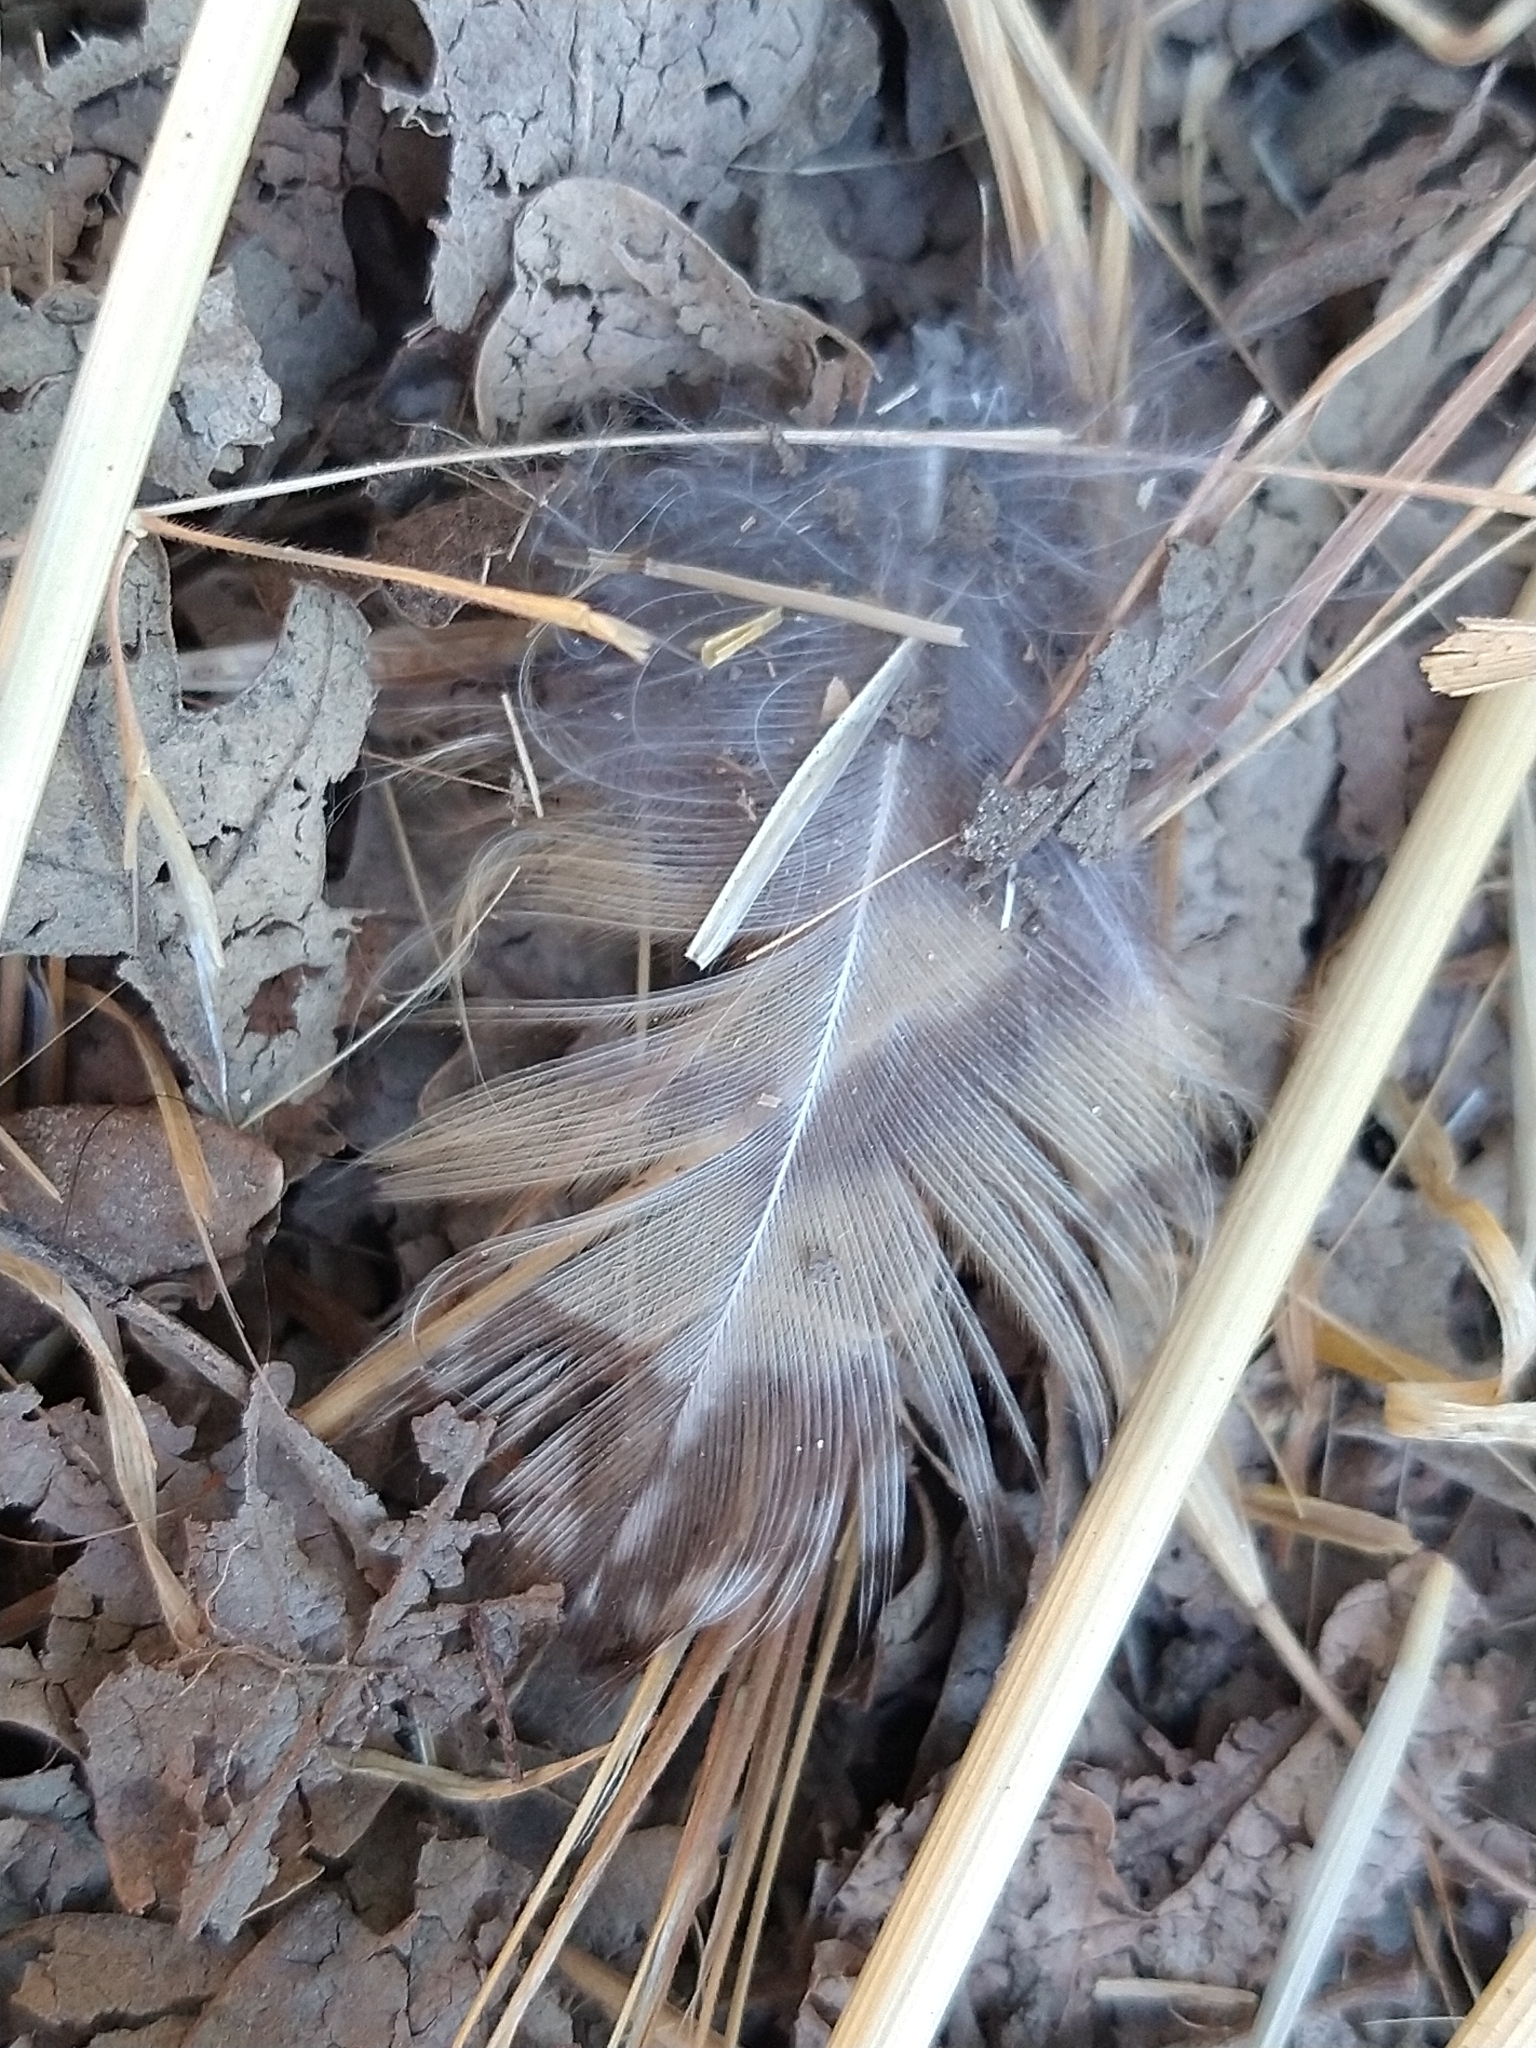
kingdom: Animalia
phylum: Chordata
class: Aves
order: Strigiformes
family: Strigidae
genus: Bubo
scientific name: Bubo virginianus
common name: Great horned owl
